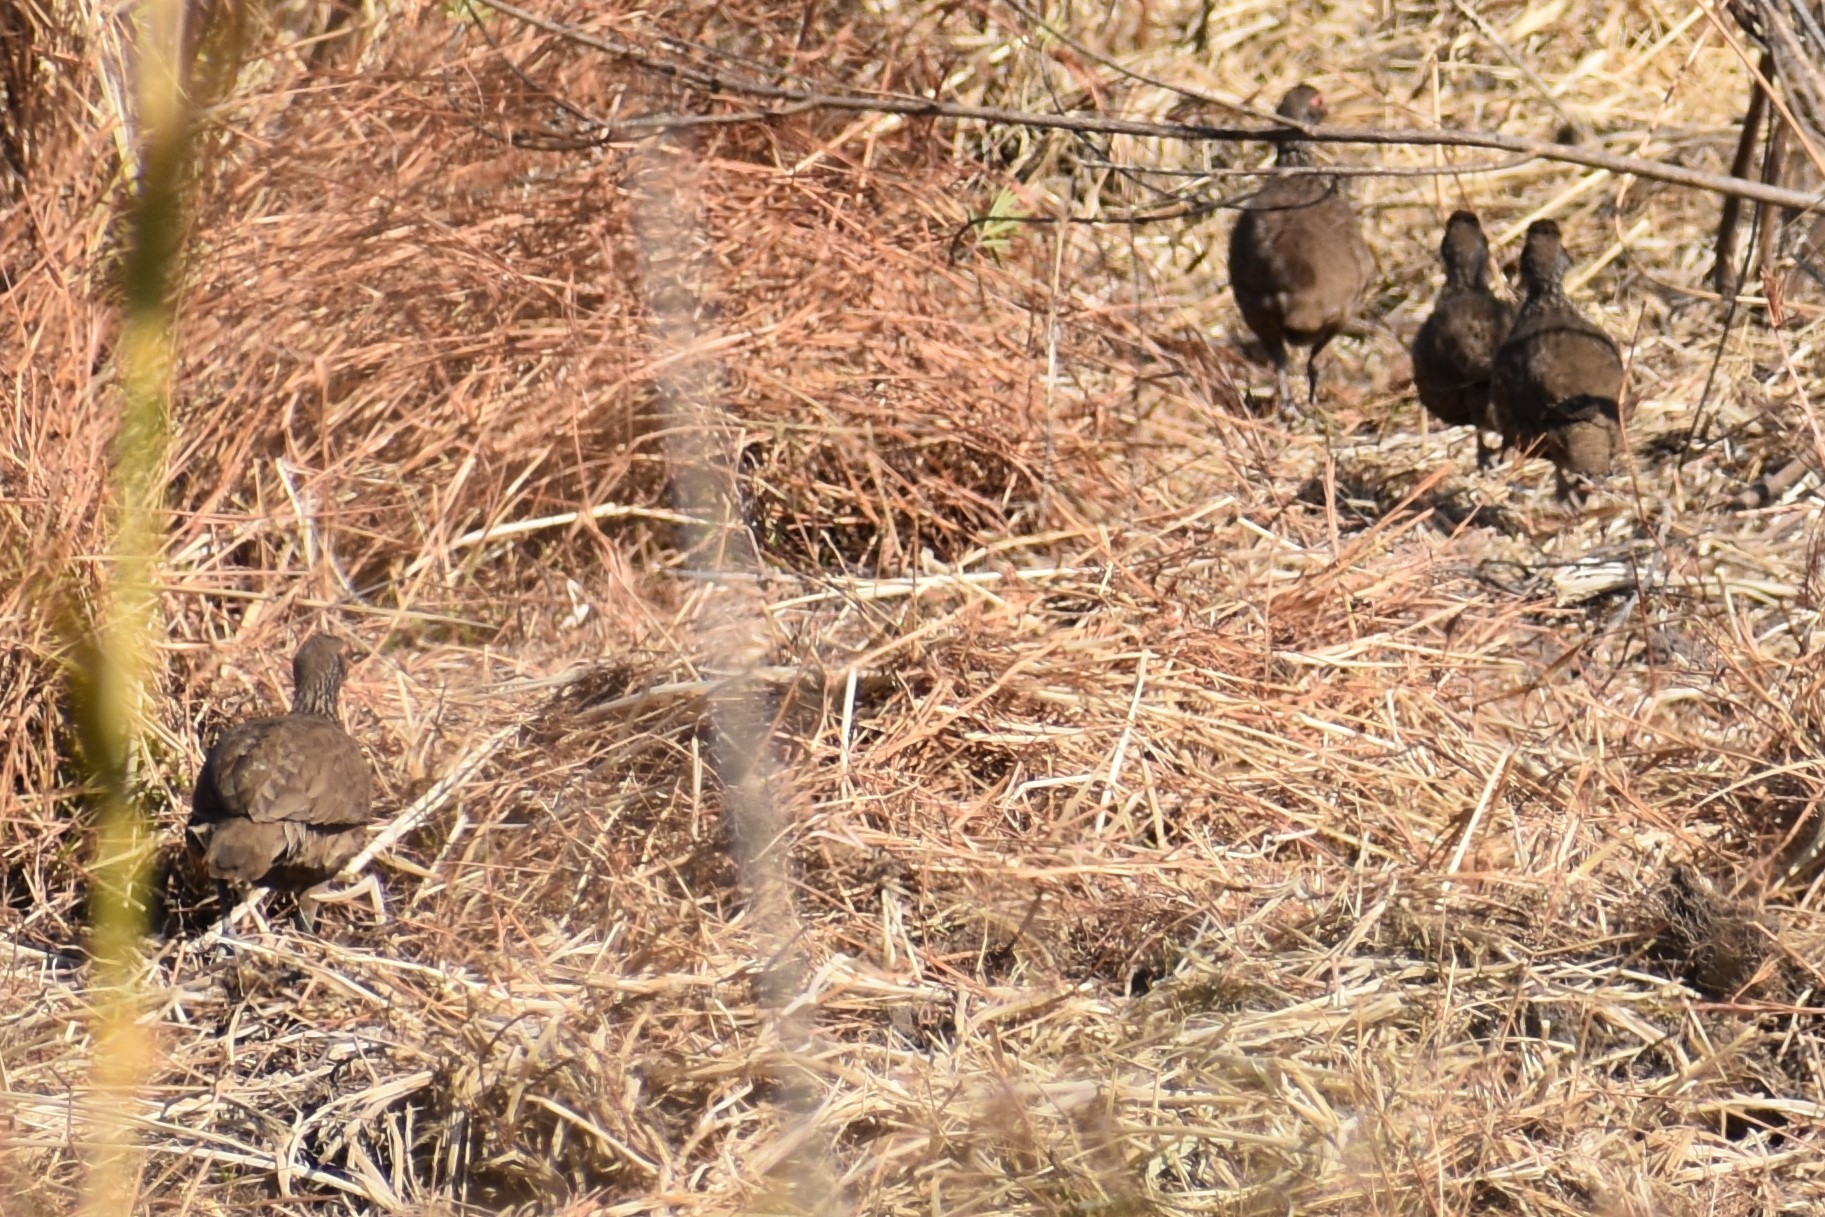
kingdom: Animalia
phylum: Chordata
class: Aves
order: Galliformes
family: Phasianidae
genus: Pternistis
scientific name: Pternistis swainsonii
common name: Swainson's spurfowl
